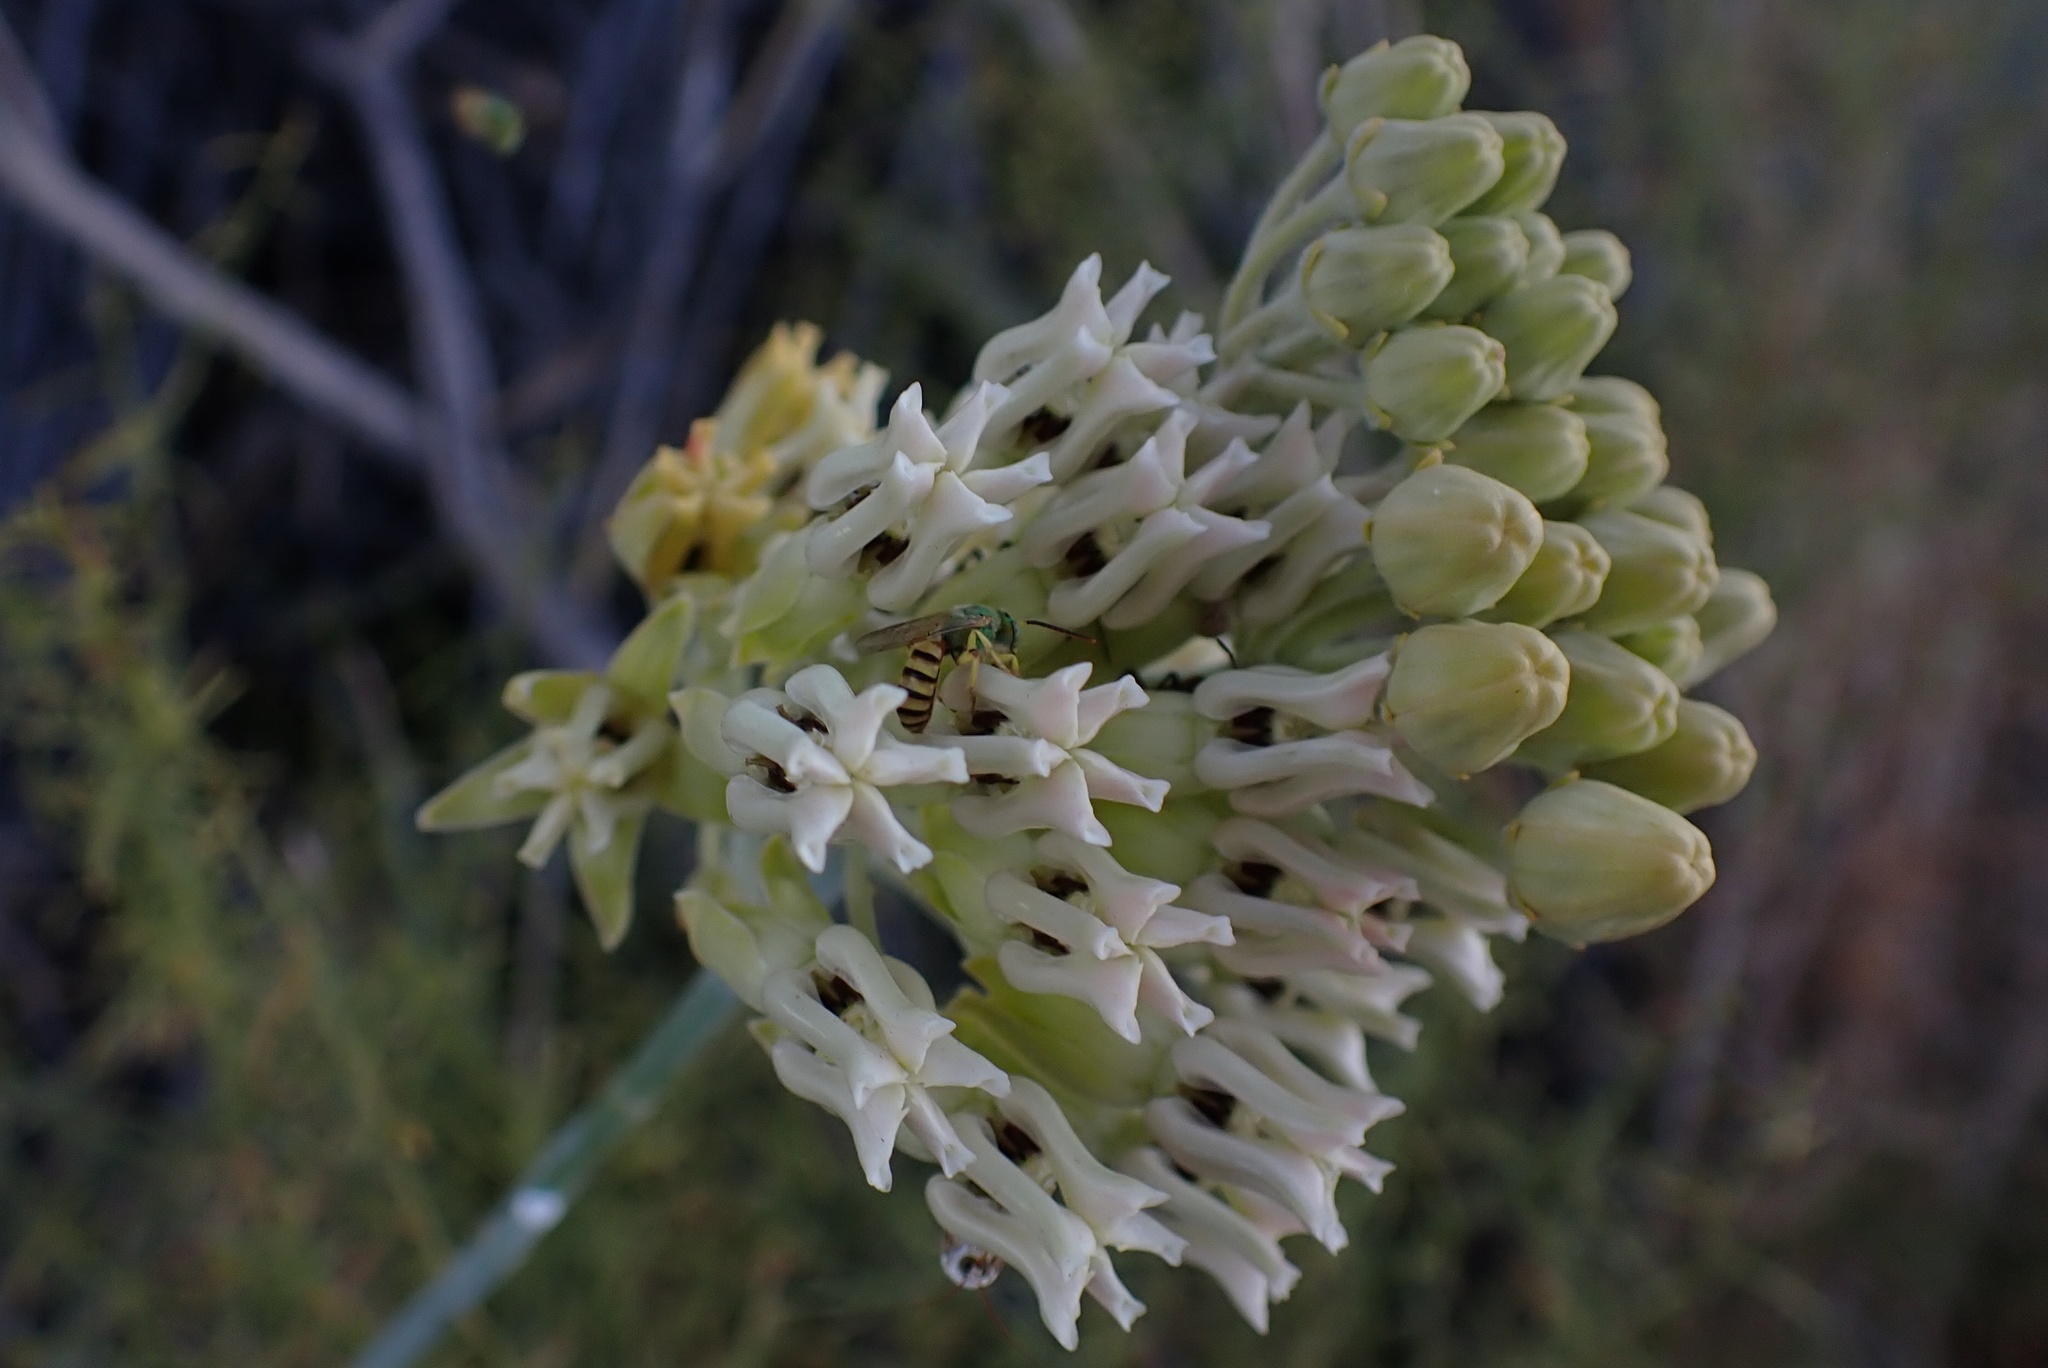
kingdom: Plantae
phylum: Tracheophyta
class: Magnoliopsida
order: Gentianales
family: Apocynaceae
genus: Asclepias
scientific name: Asclepias subulata
